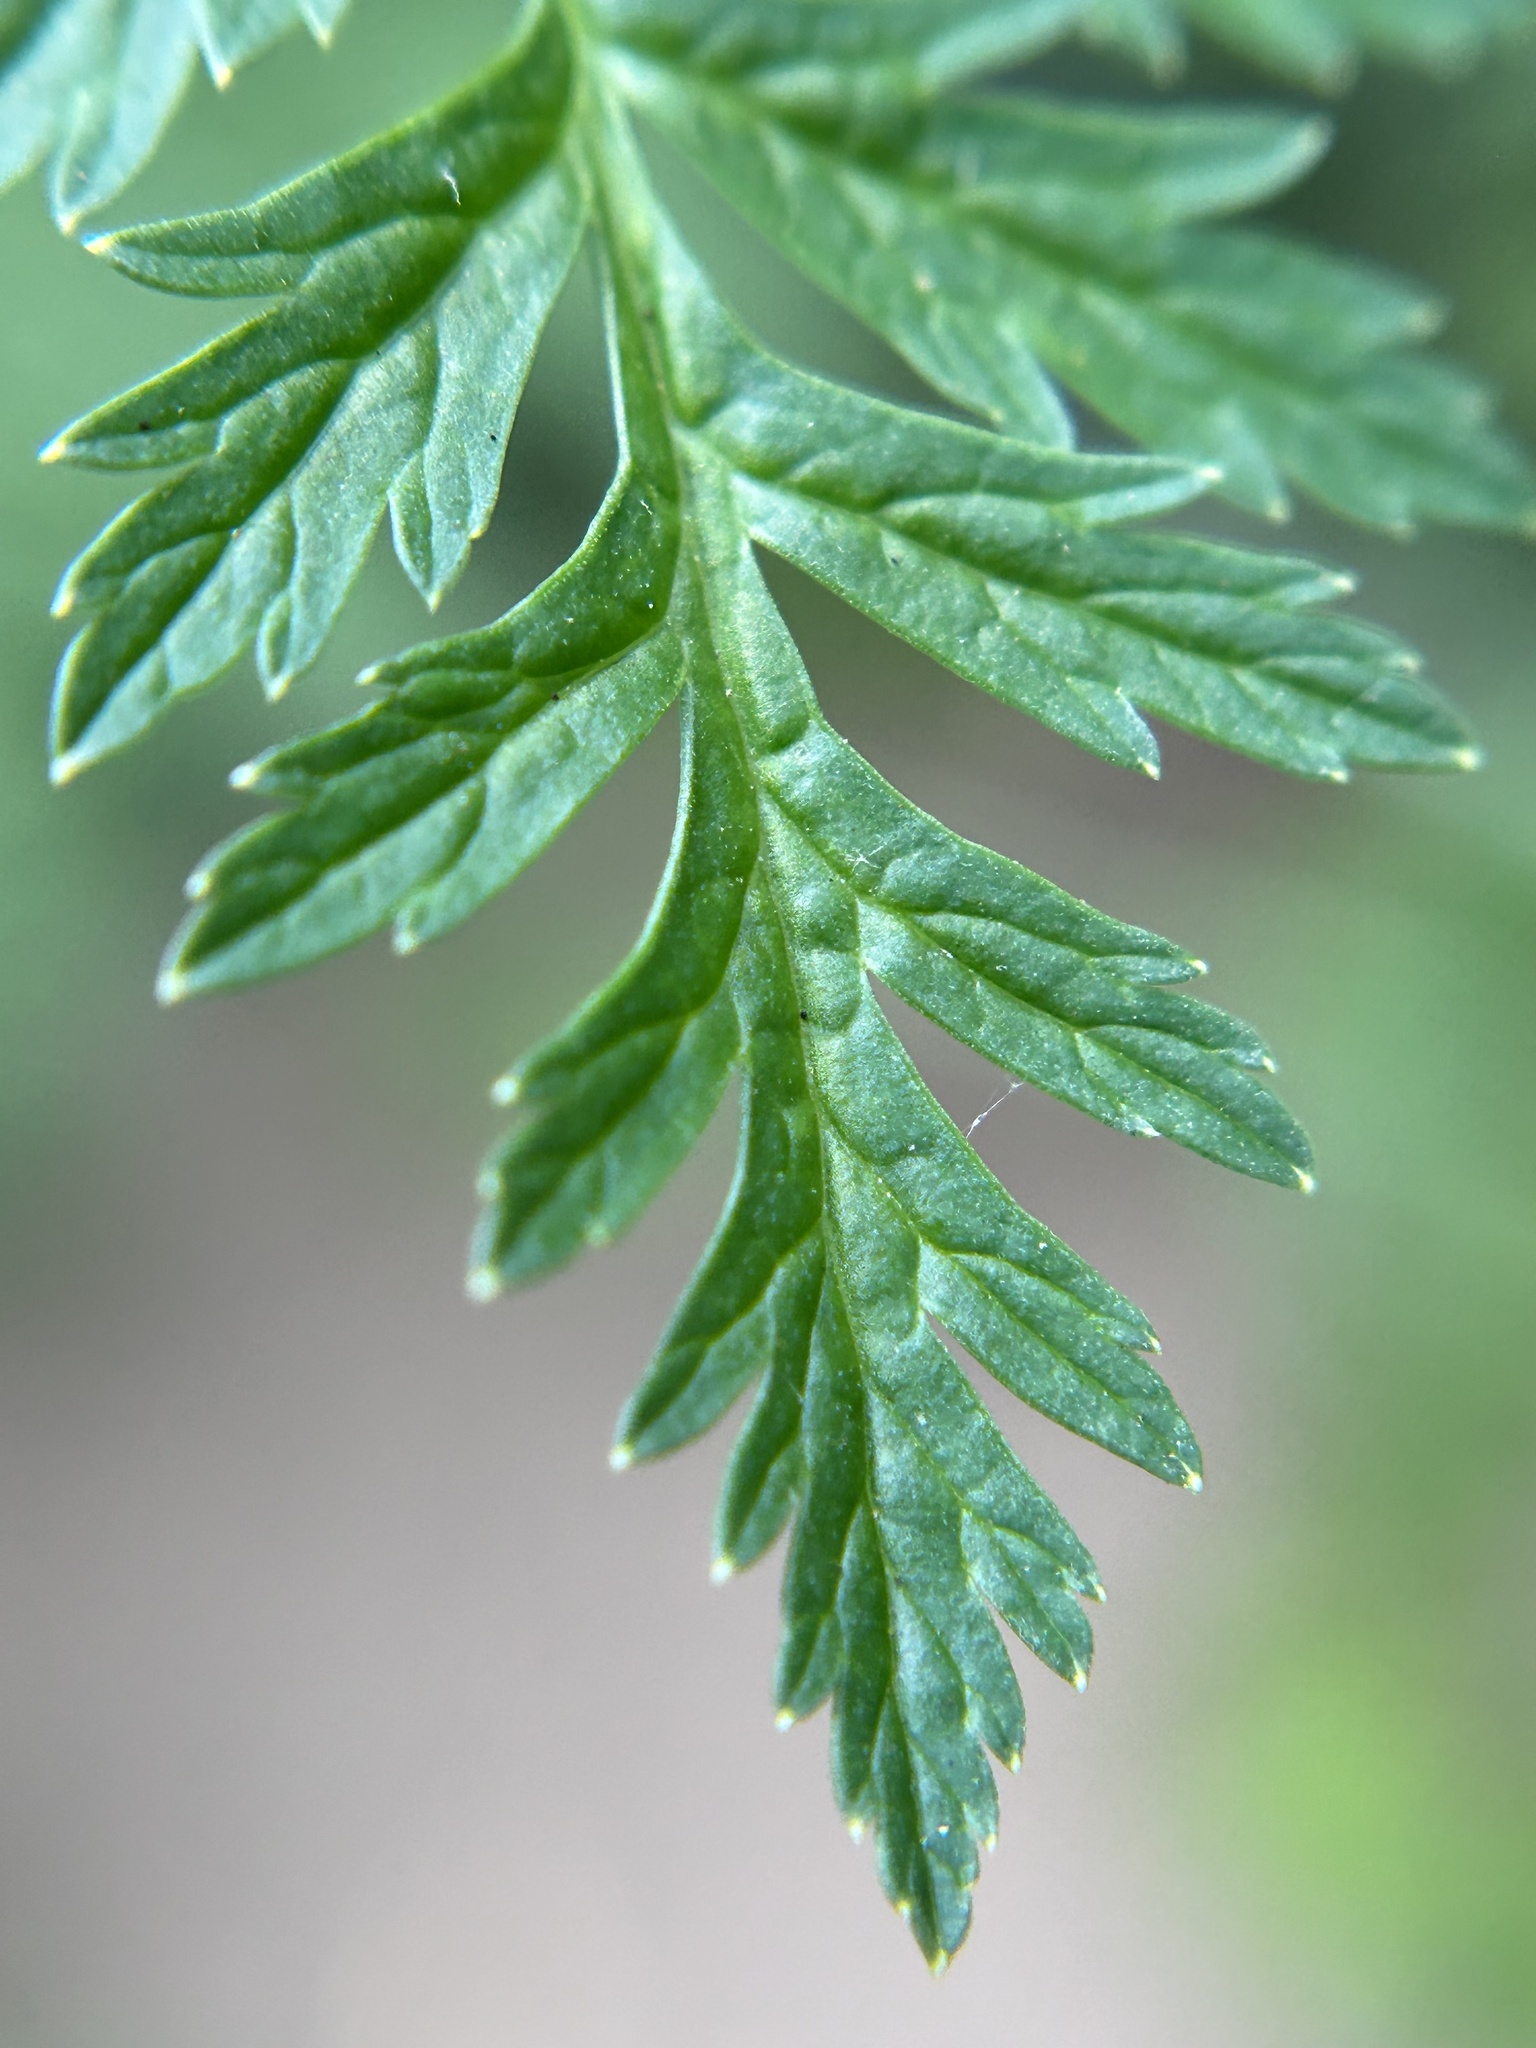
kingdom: Plantae
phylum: Tracheophyta
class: Magnoliopsida
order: Apiales
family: Apiaceae
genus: Conium
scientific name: Conium maculatum
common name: Hemlock
